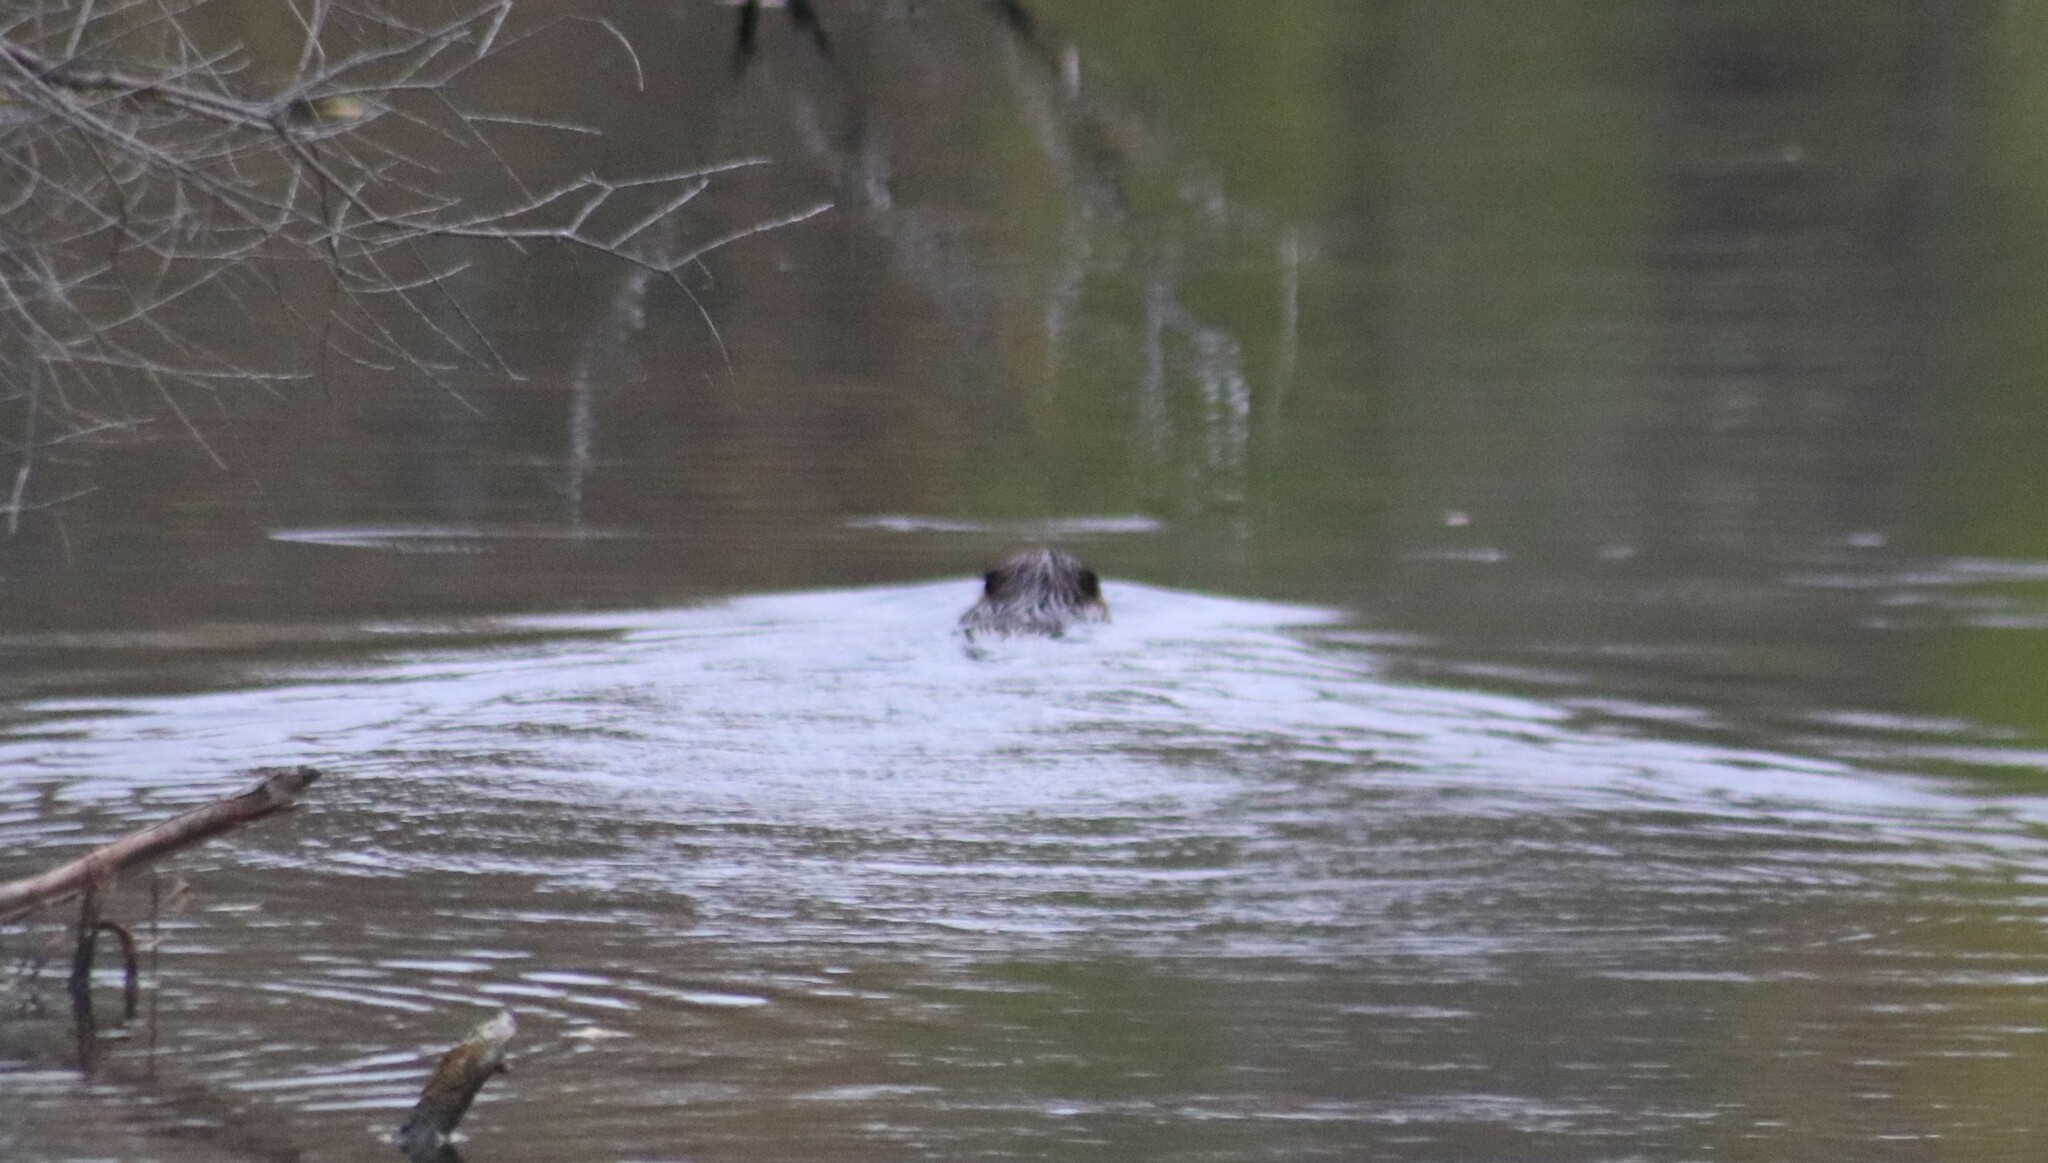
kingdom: Animalia
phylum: Chordata
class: Mammalia
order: Rodentia
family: Castoridae
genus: Castor
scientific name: Castor canadensis
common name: American beaver
